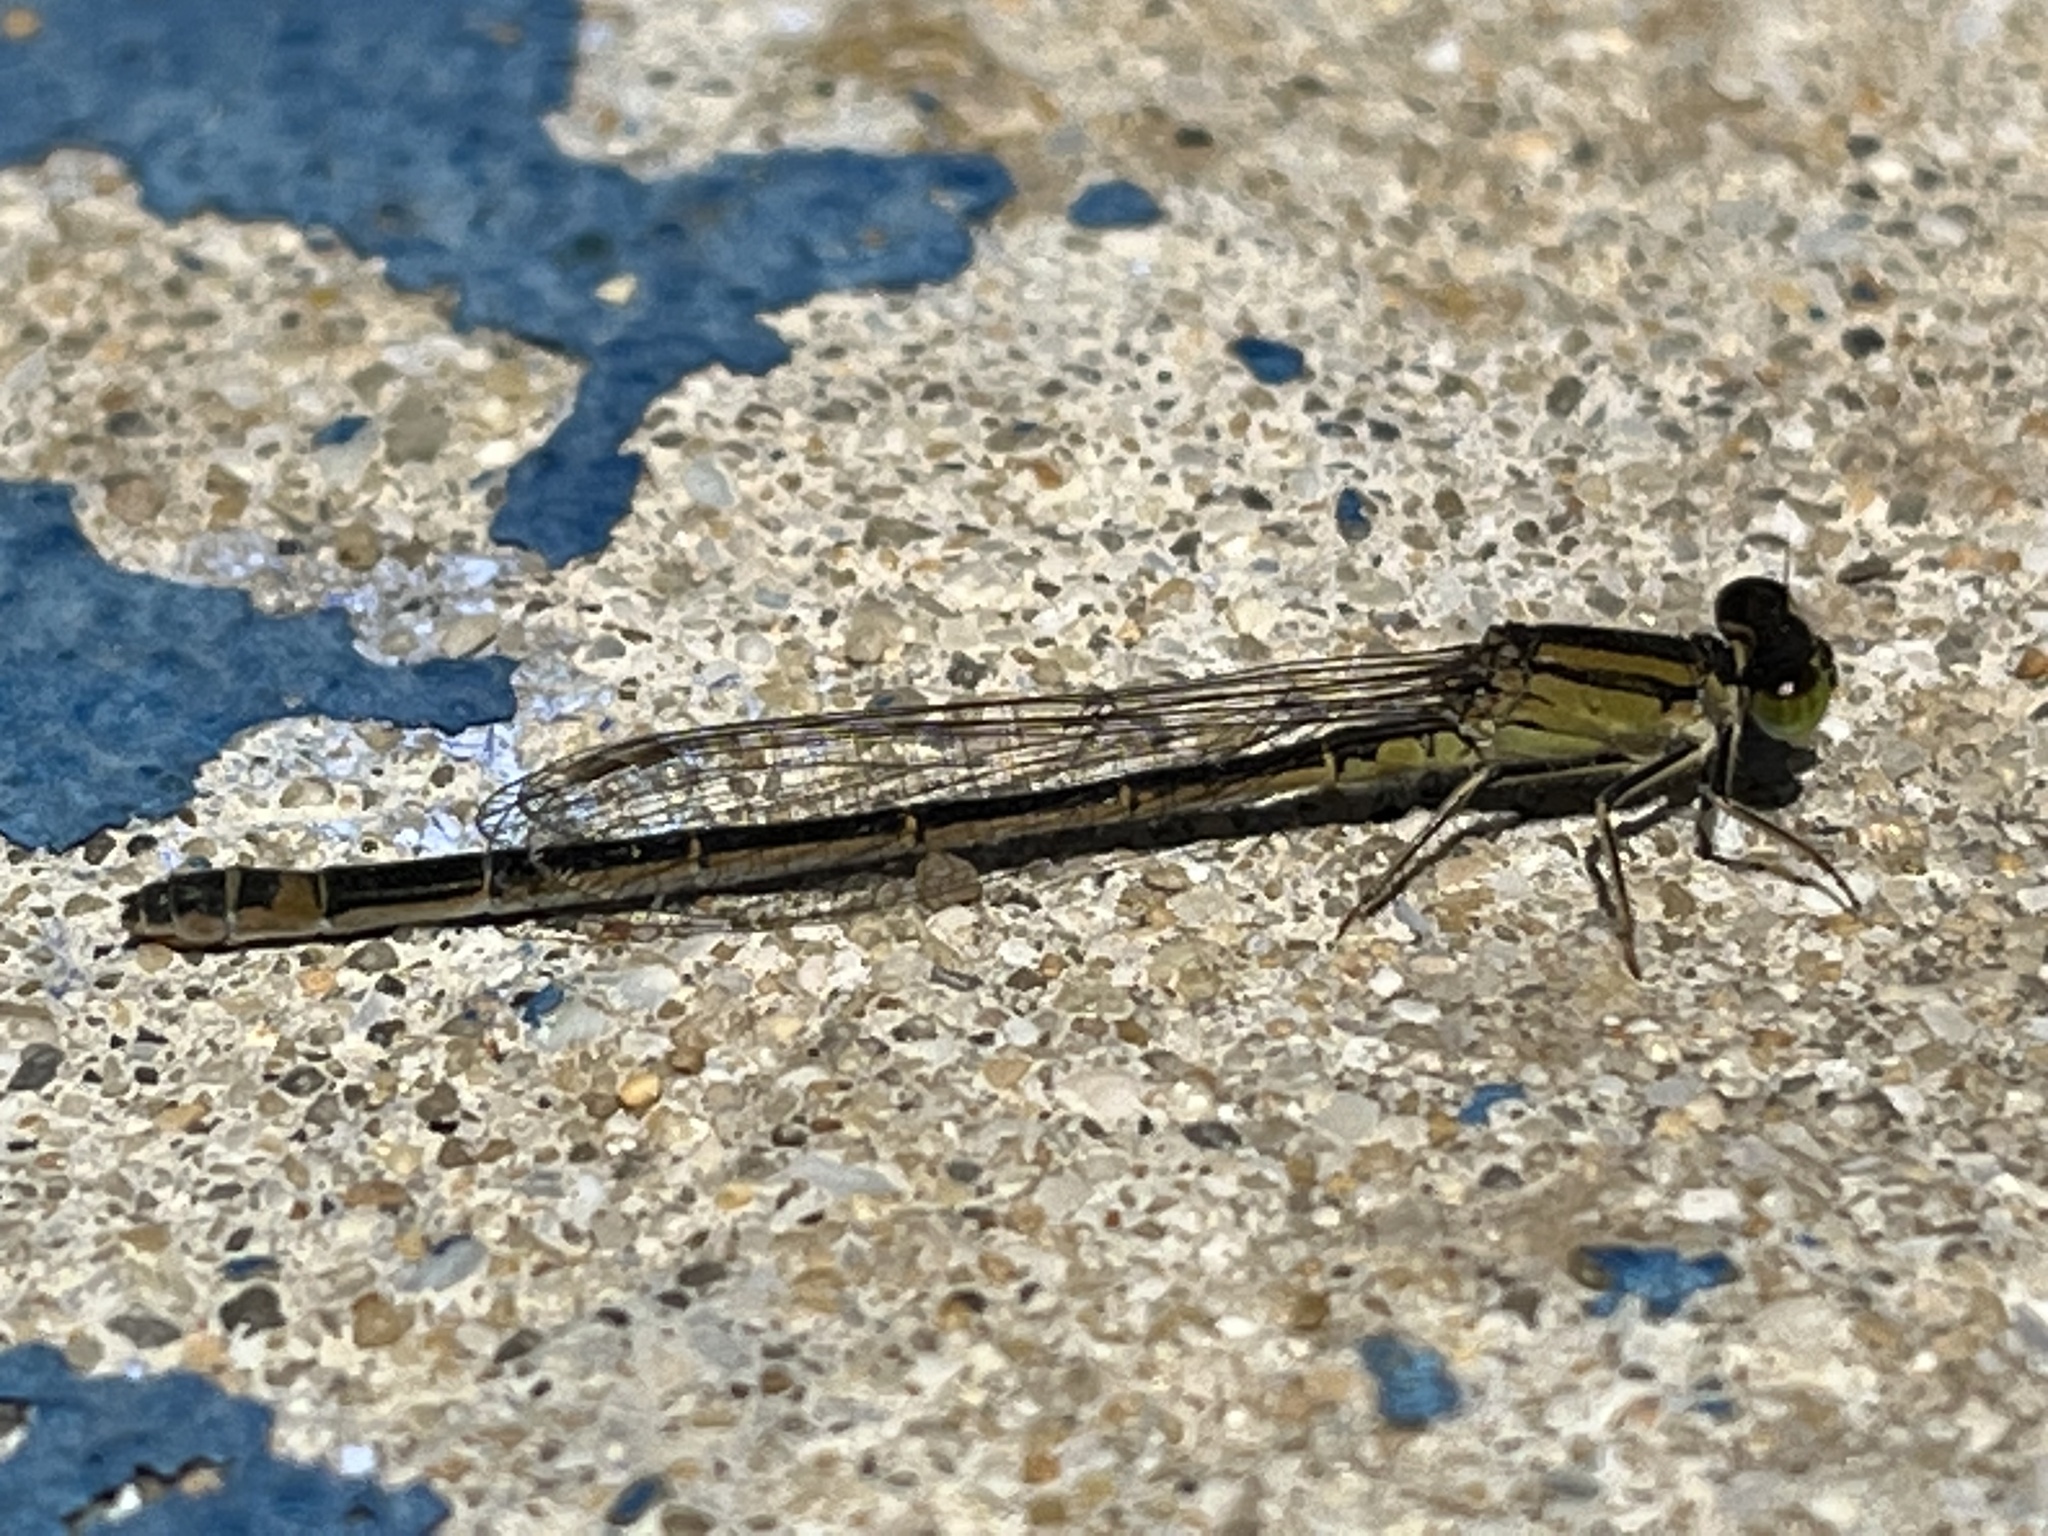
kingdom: Animalia
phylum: Arthropoda
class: Insecta
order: Odonata
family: Coenagrionidae
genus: Ischnura
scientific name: Ischnura graellsii
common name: Iberian bluetail
